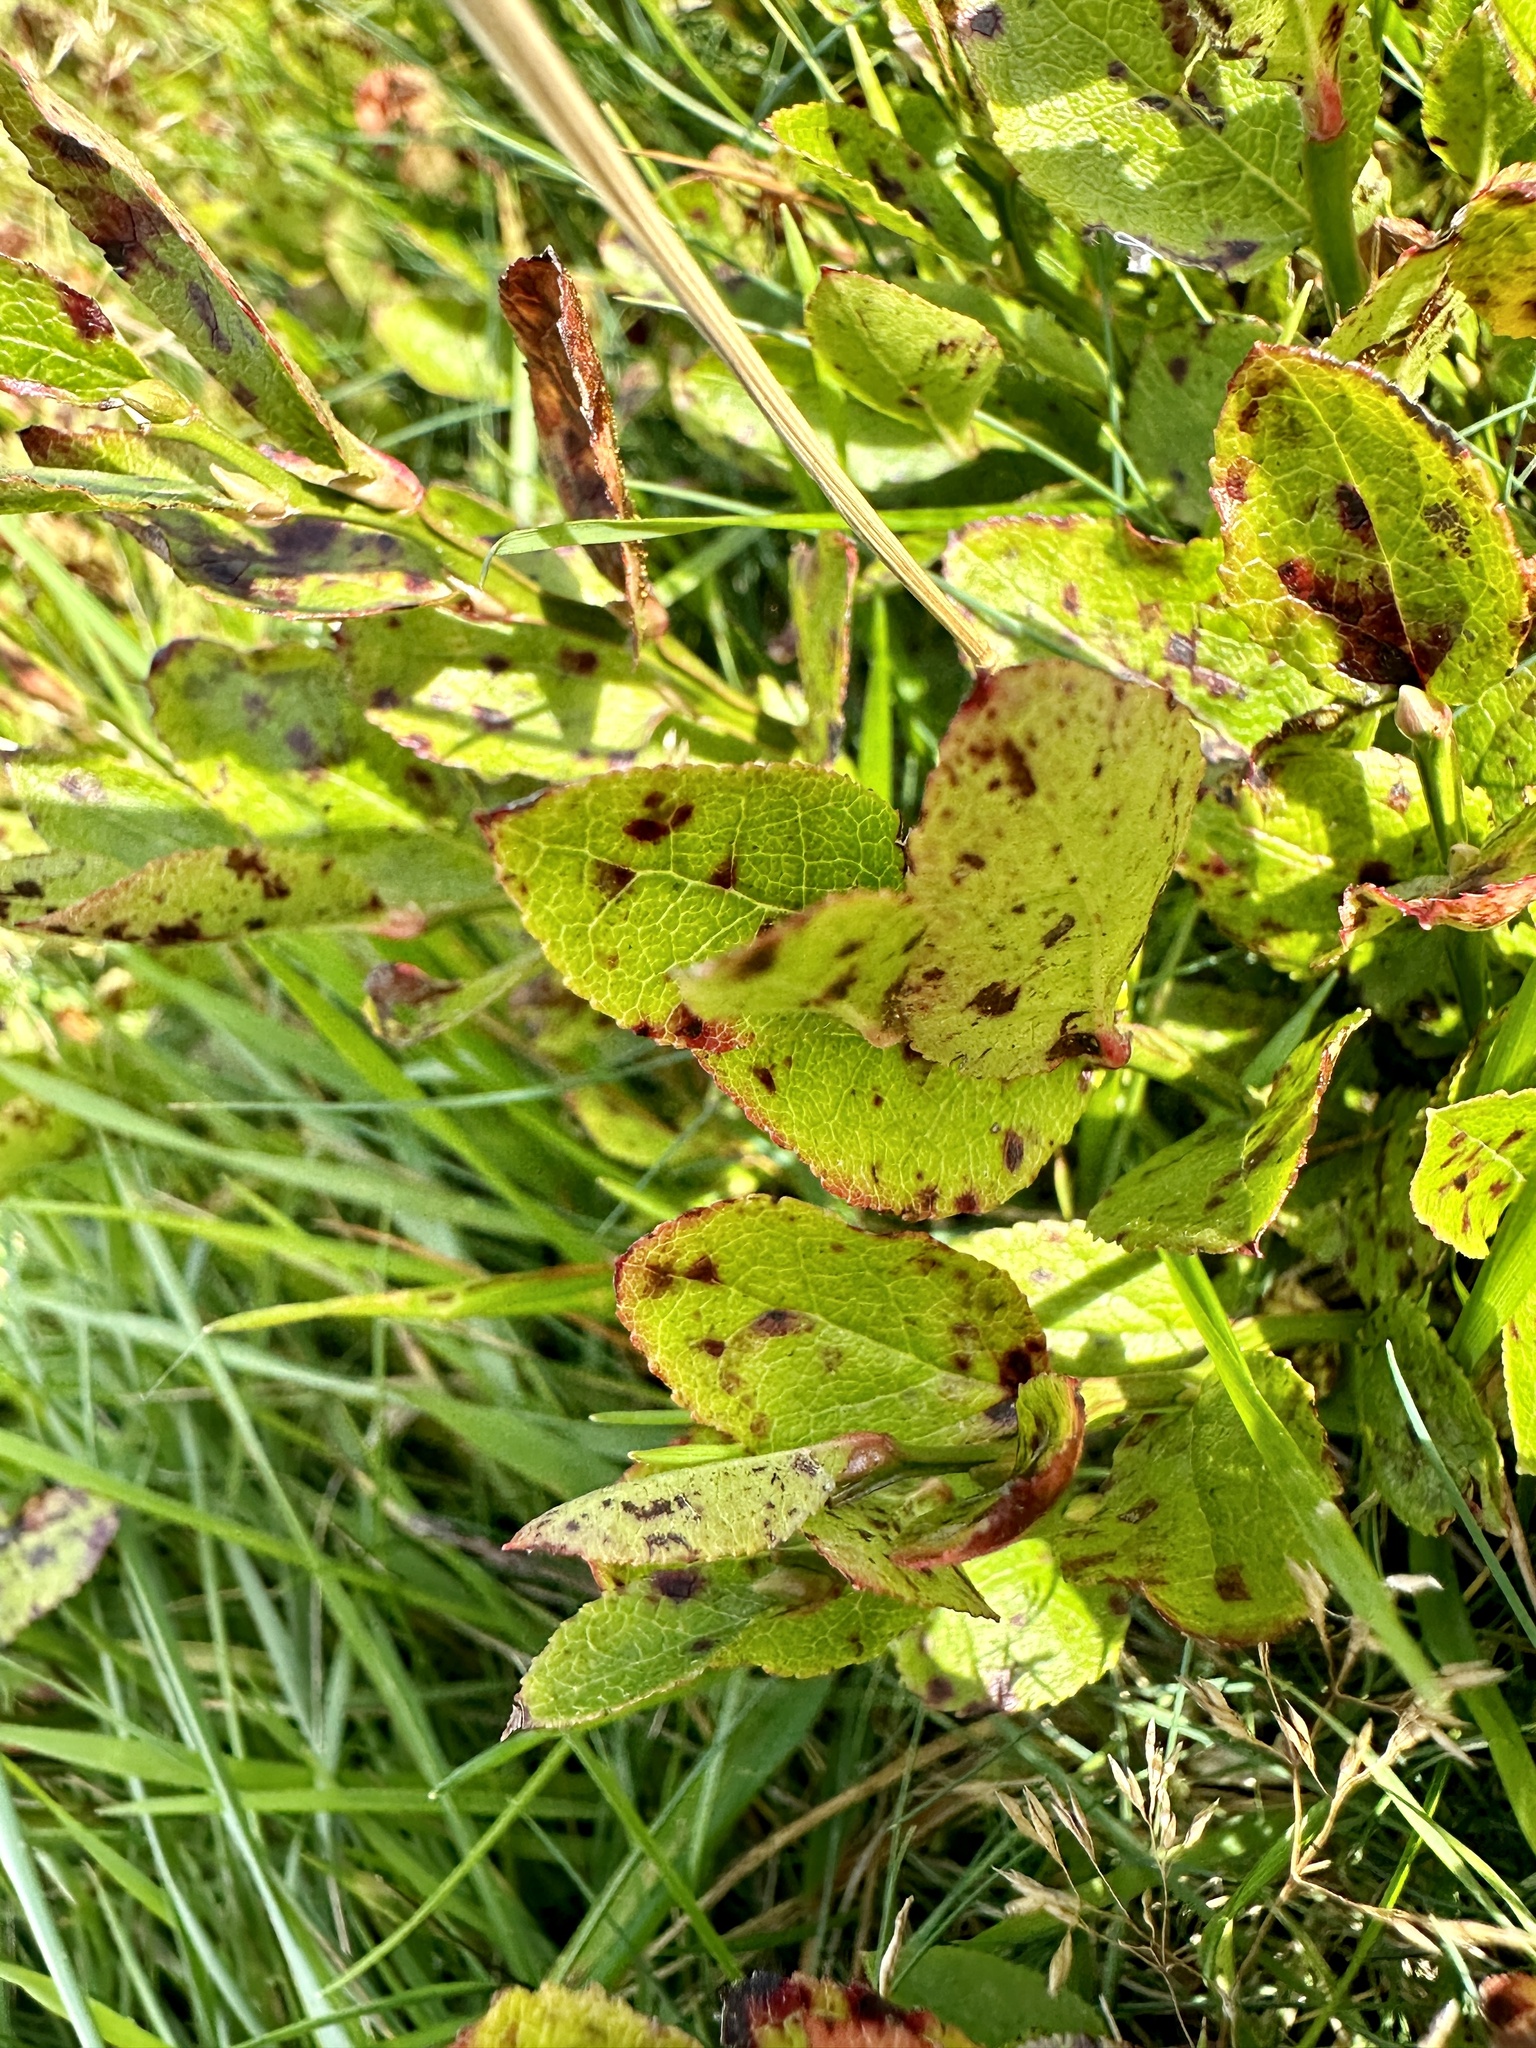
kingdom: Plantae
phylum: Tracheophyta
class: Magnoliopsida
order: Ericales
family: Ericaceae
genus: Vaccinium
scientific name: Vaccinium myrtillus
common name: Bilberry
